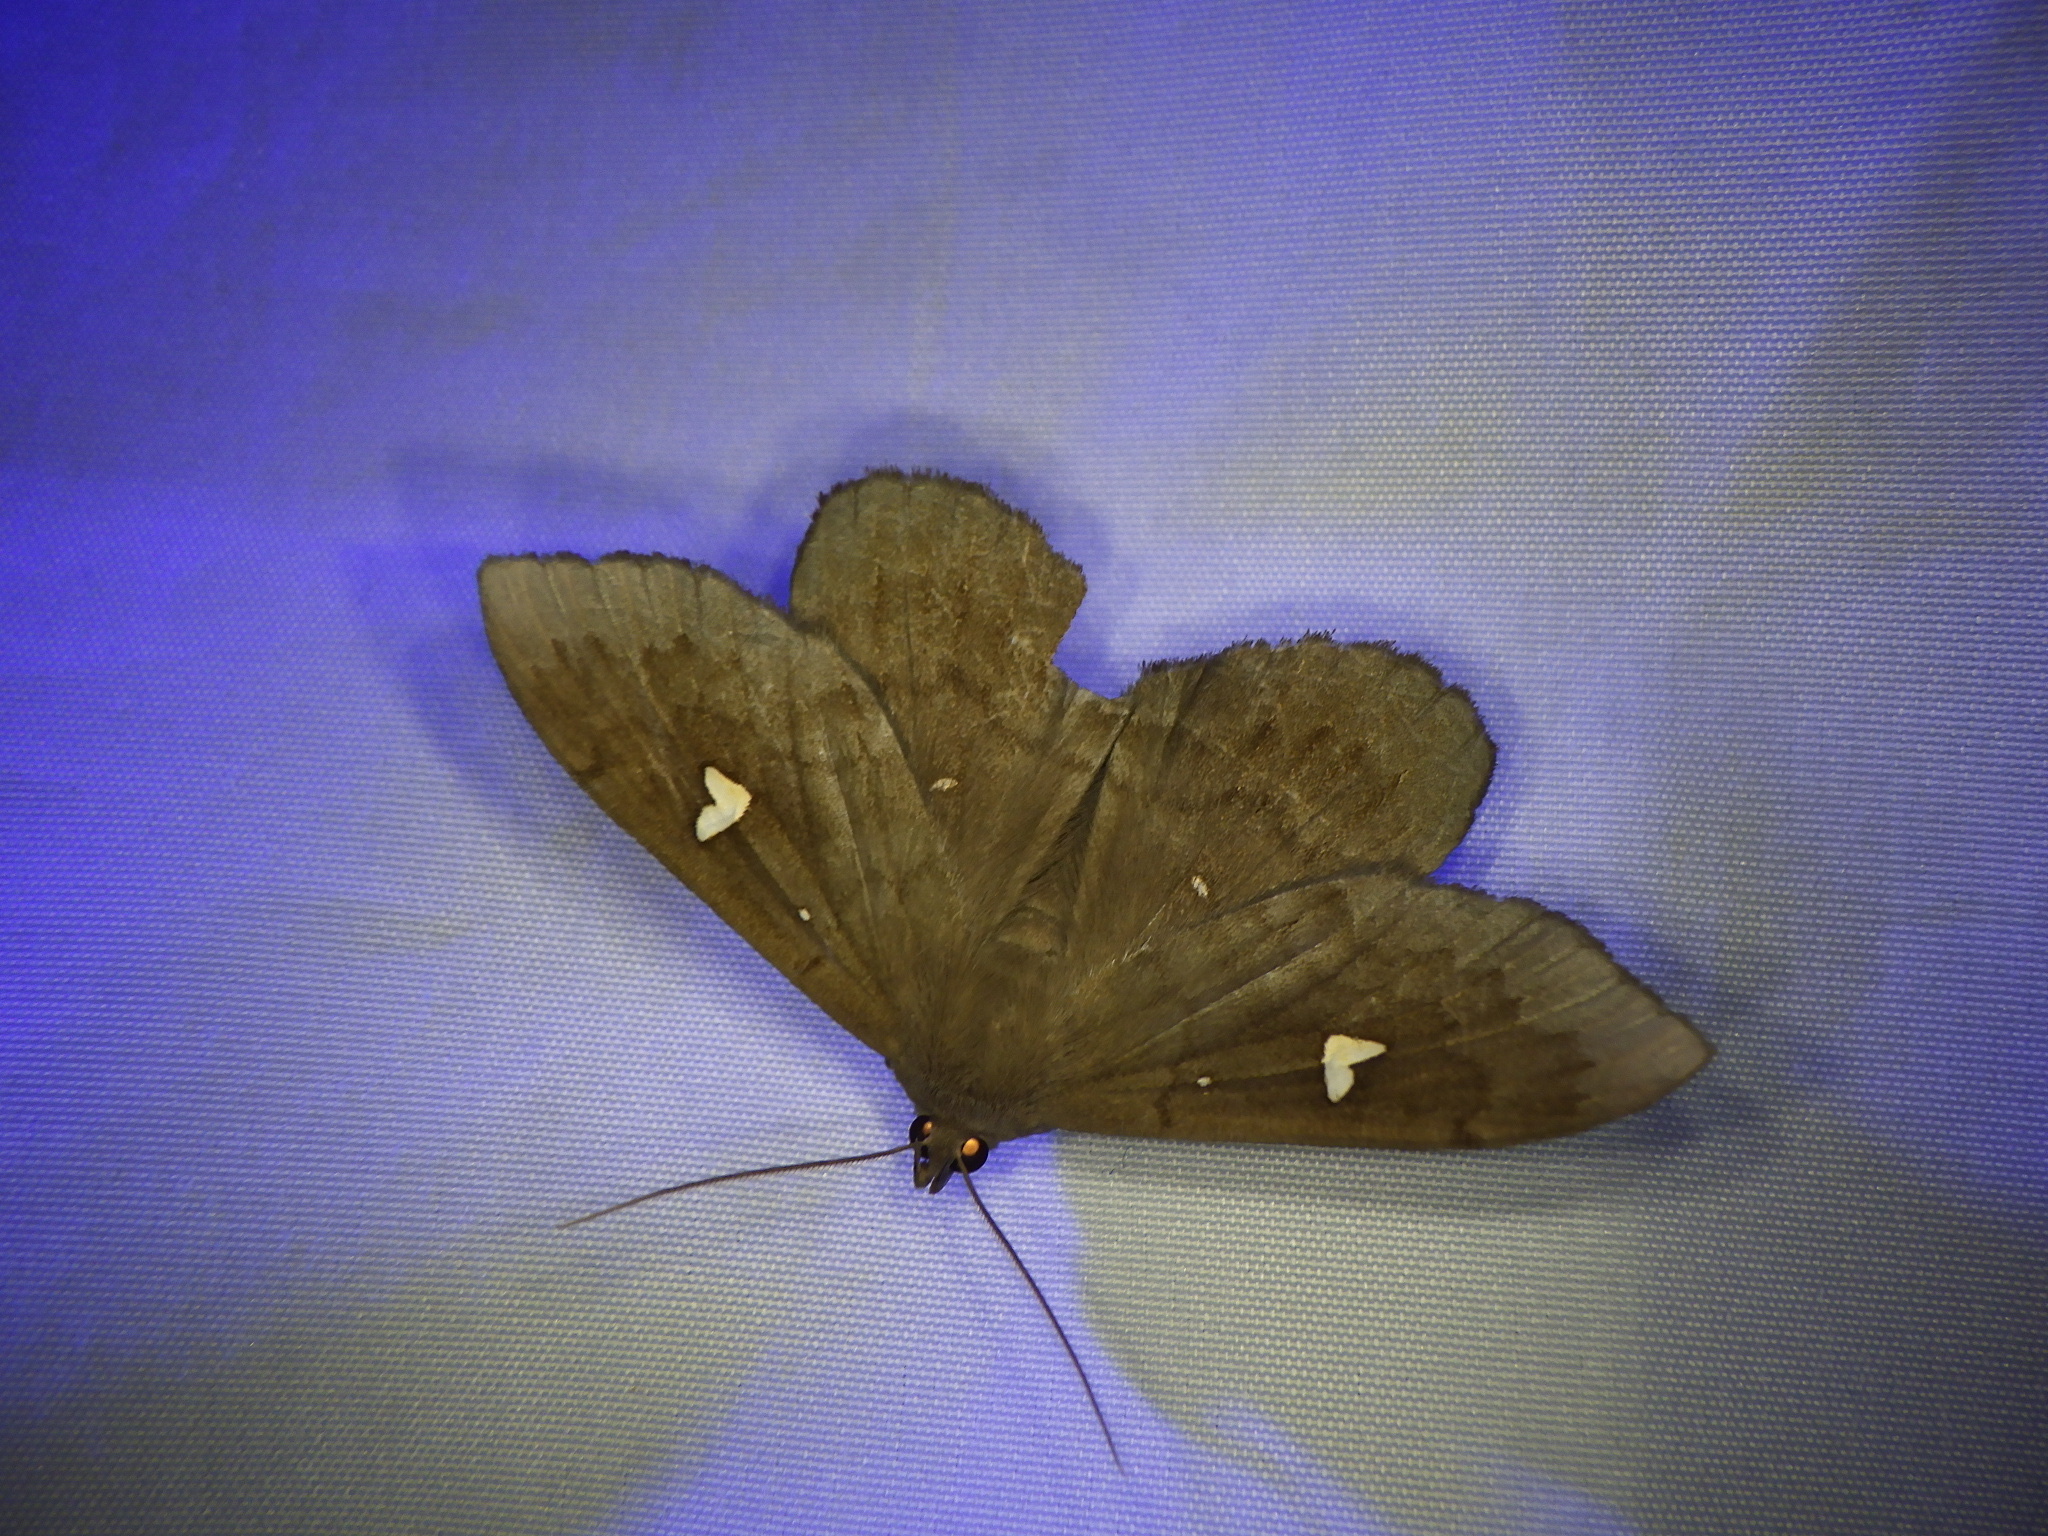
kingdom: Animalia
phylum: Arthropoda
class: Insecta
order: Lepidoptera
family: Erebidae
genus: Edessena
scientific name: Edessena hamada
